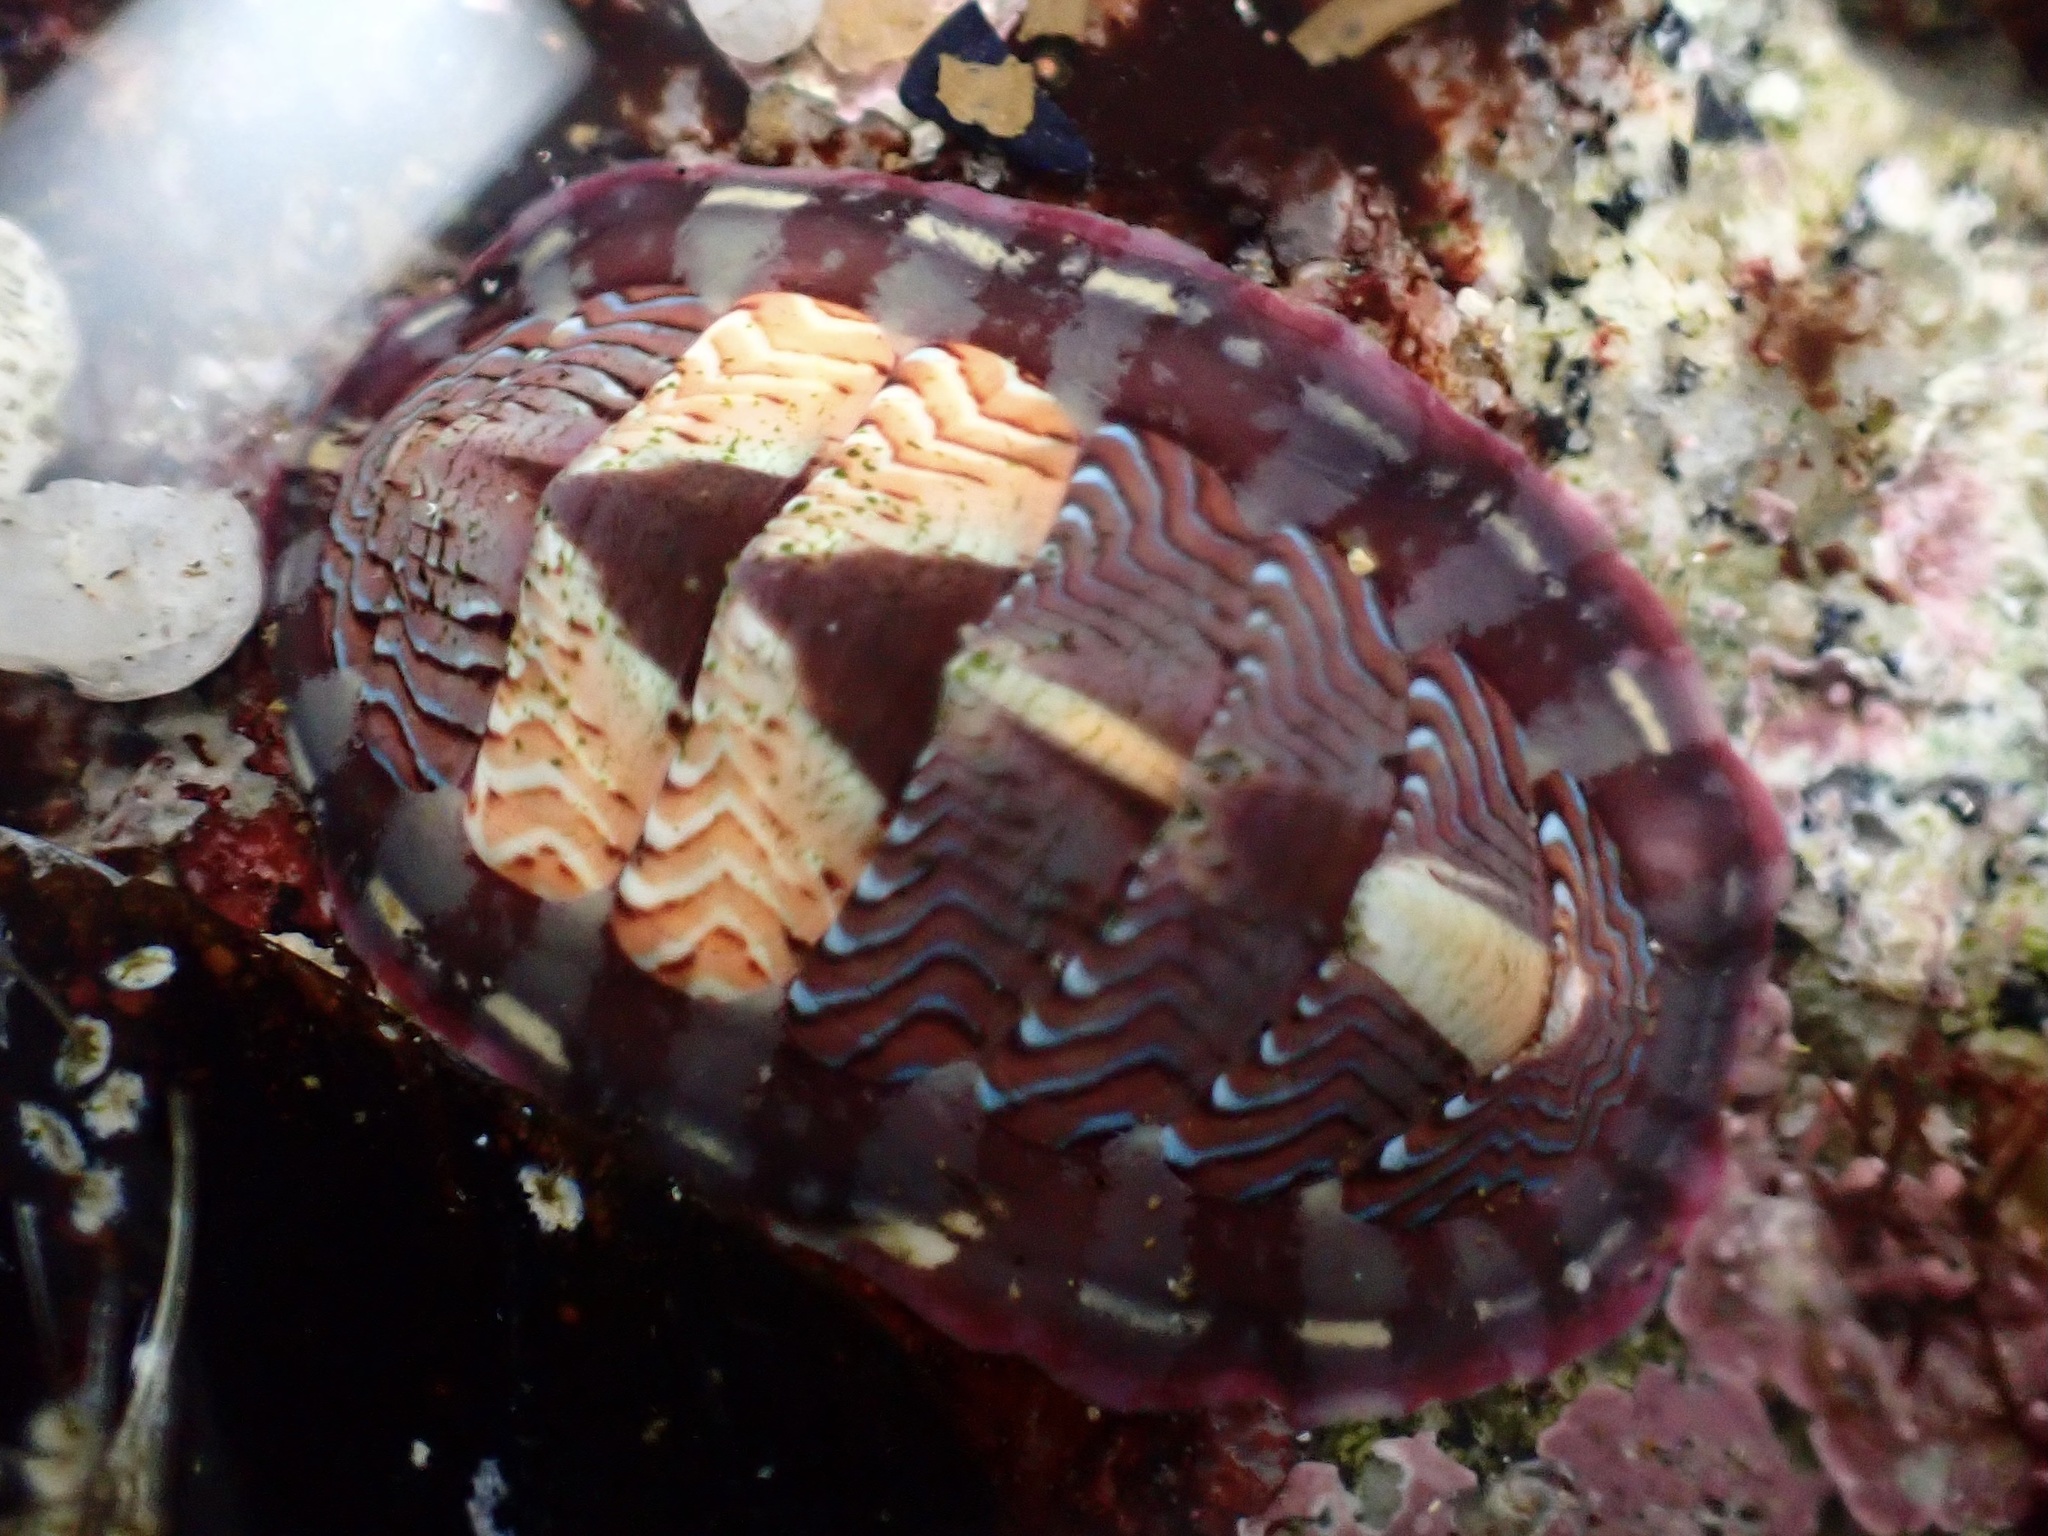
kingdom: Animalia
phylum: Mollusca
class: Polyplacophora
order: Chitonida
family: Tonicellidae
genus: Tonicella
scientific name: Tonicella lokii
